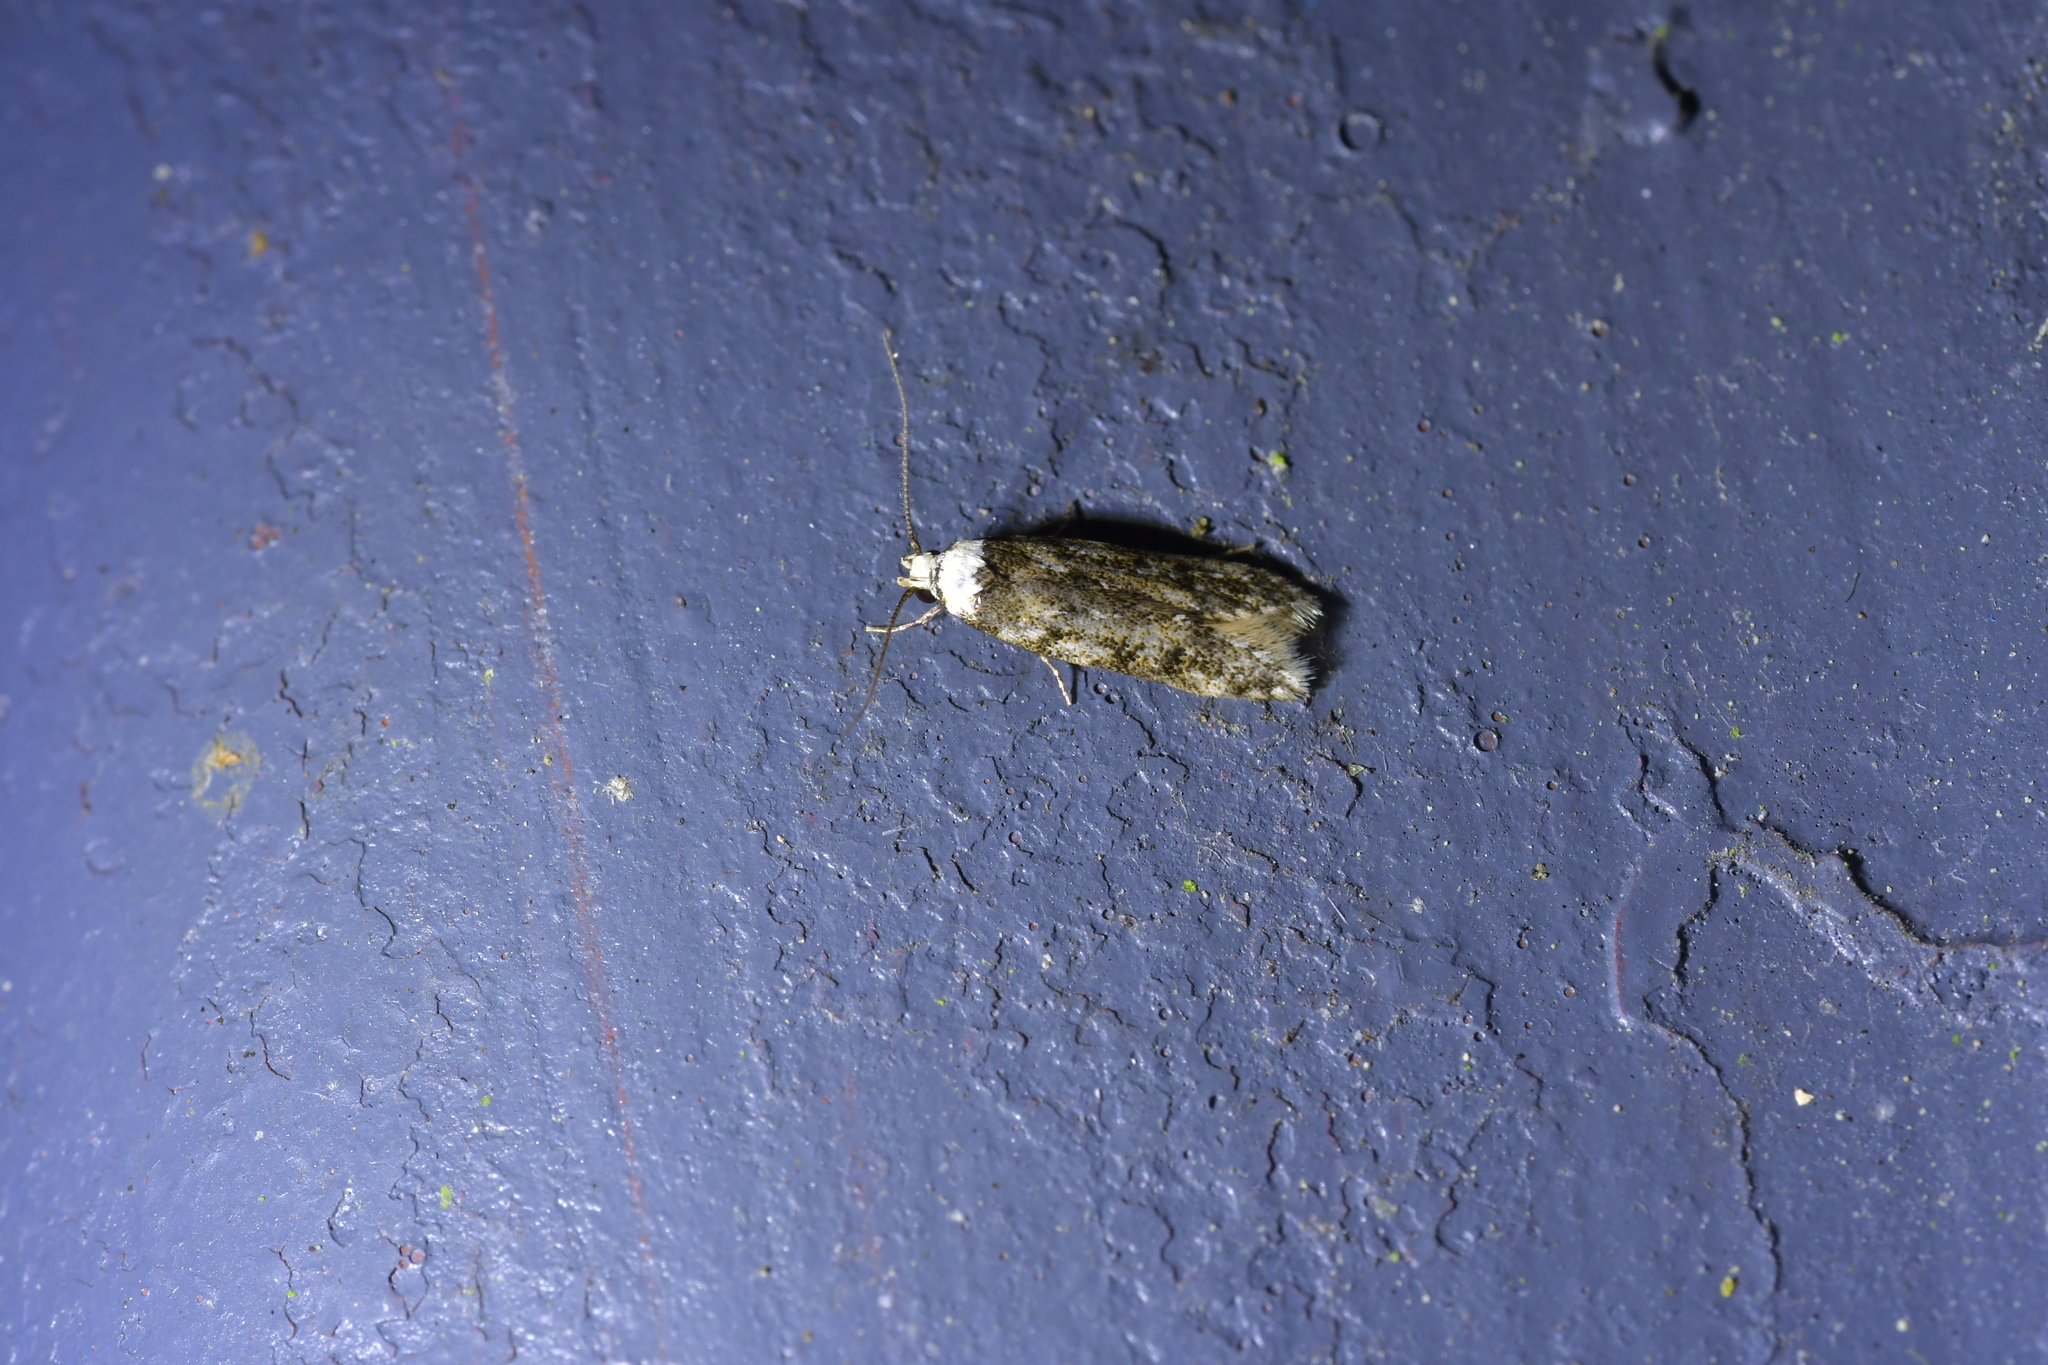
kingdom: Animalia
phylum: Arthropoda
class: Insecta
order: Lepidoptera
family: Oecophoridae
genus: Endrosis
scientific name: Endrosis sarcitrella
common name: White-shouldered house moth
